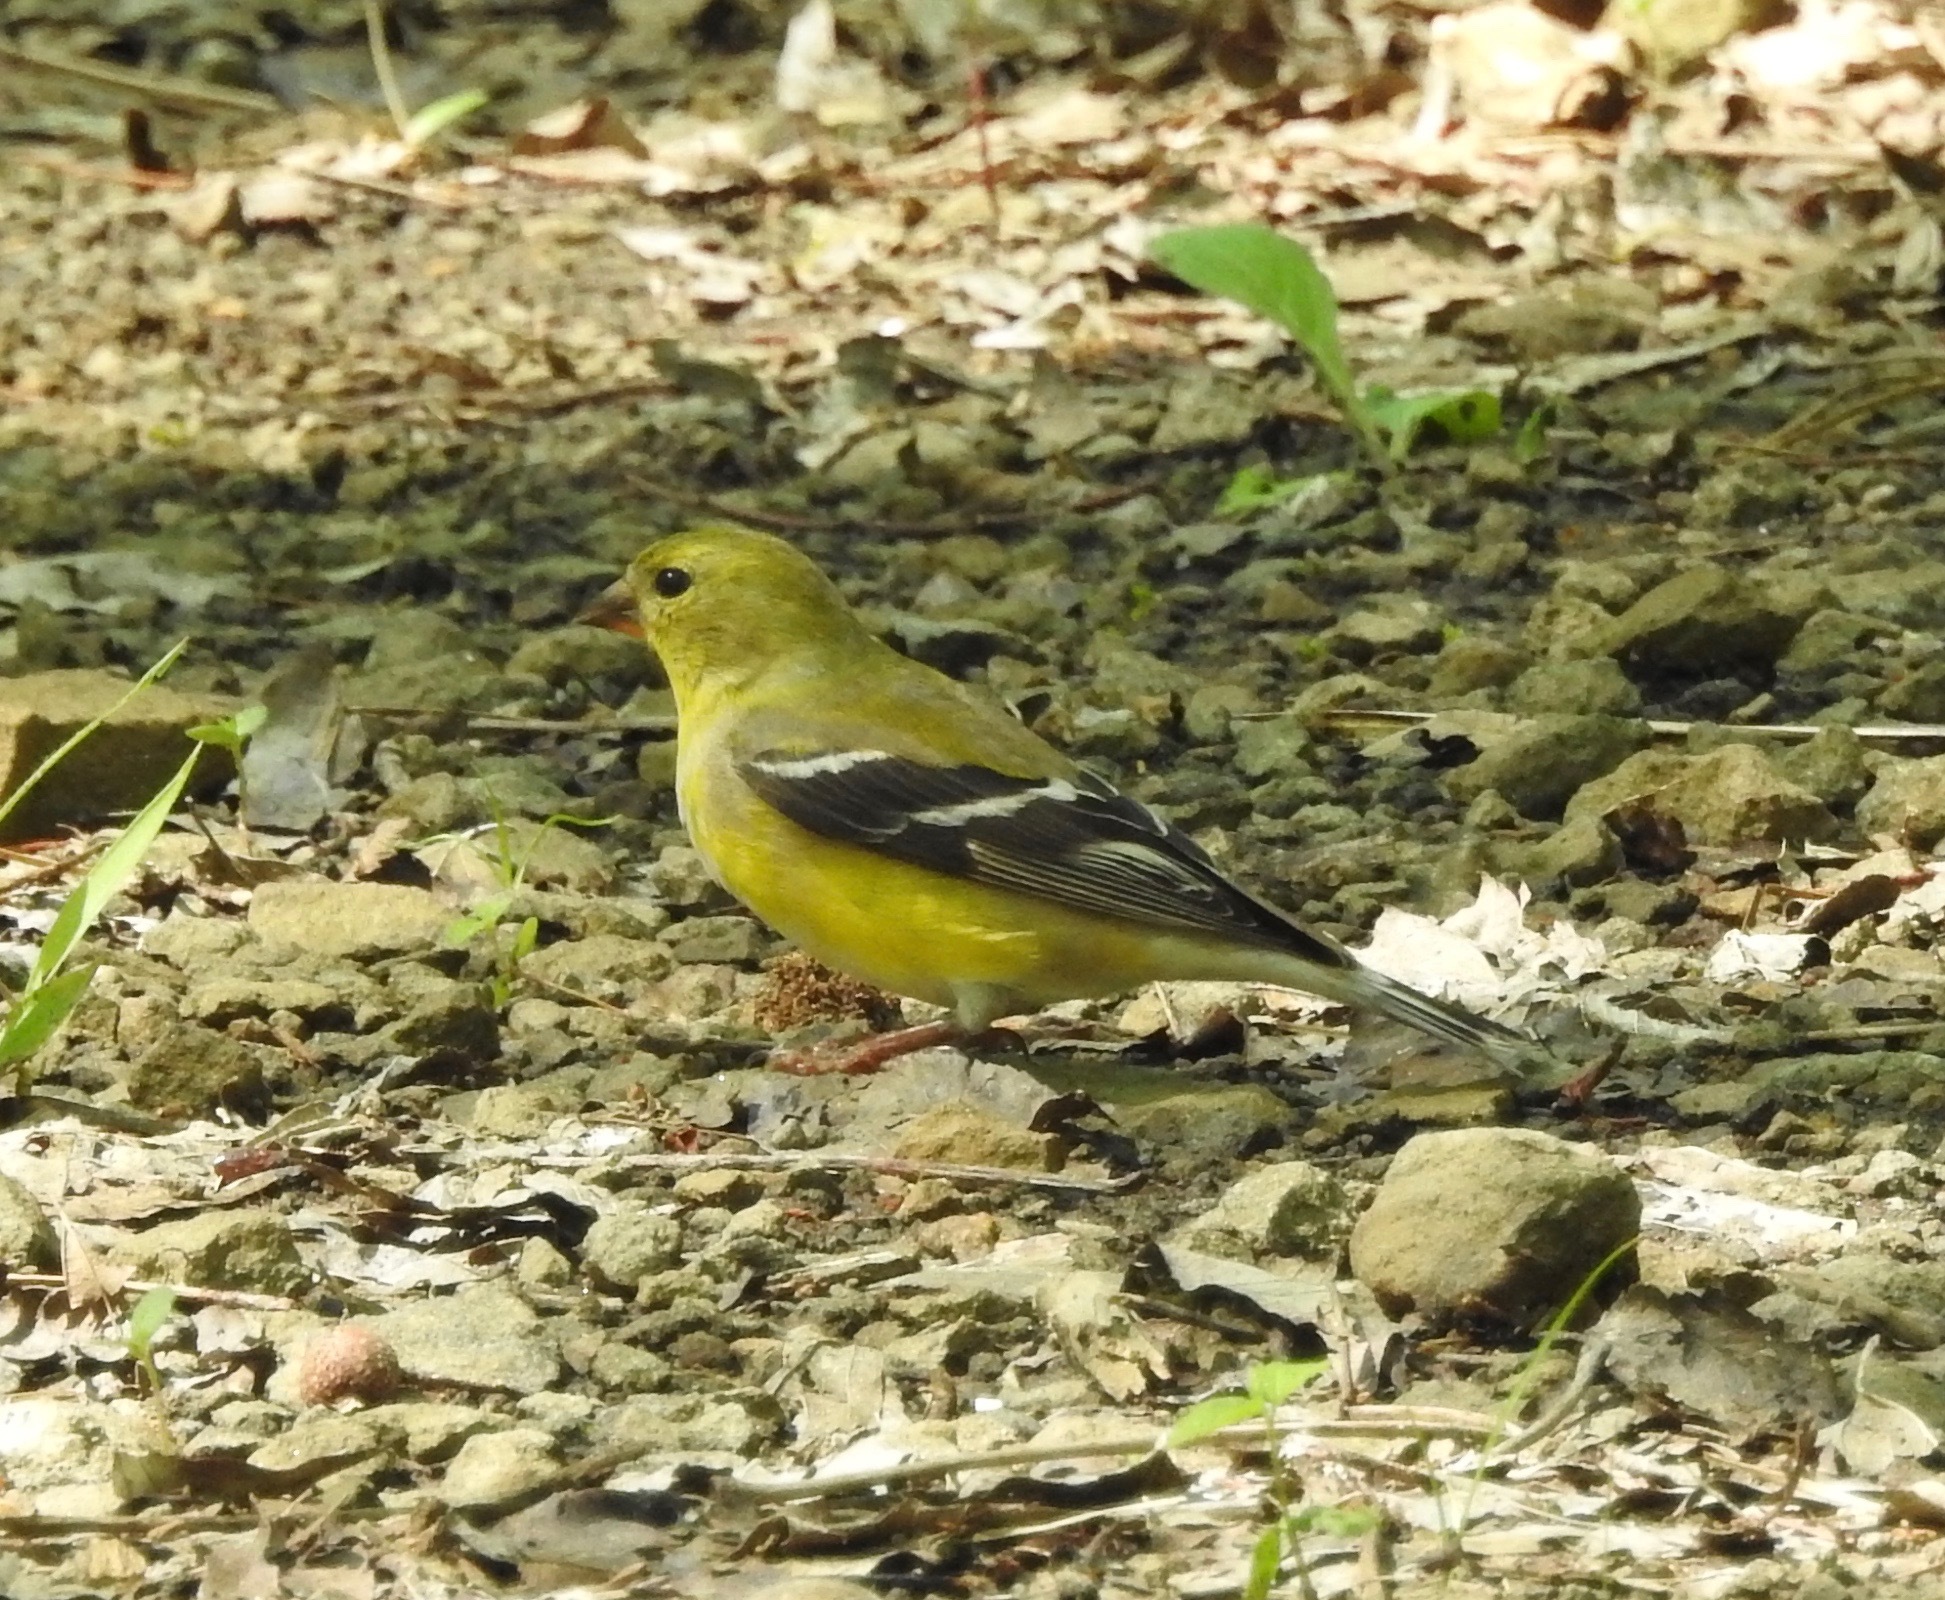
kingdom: Animalia
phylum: Chordata
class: Aves
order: Passeriformes
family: Fringillidae
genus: Spinus
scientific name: Spinus tristis
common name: American goldfinch
